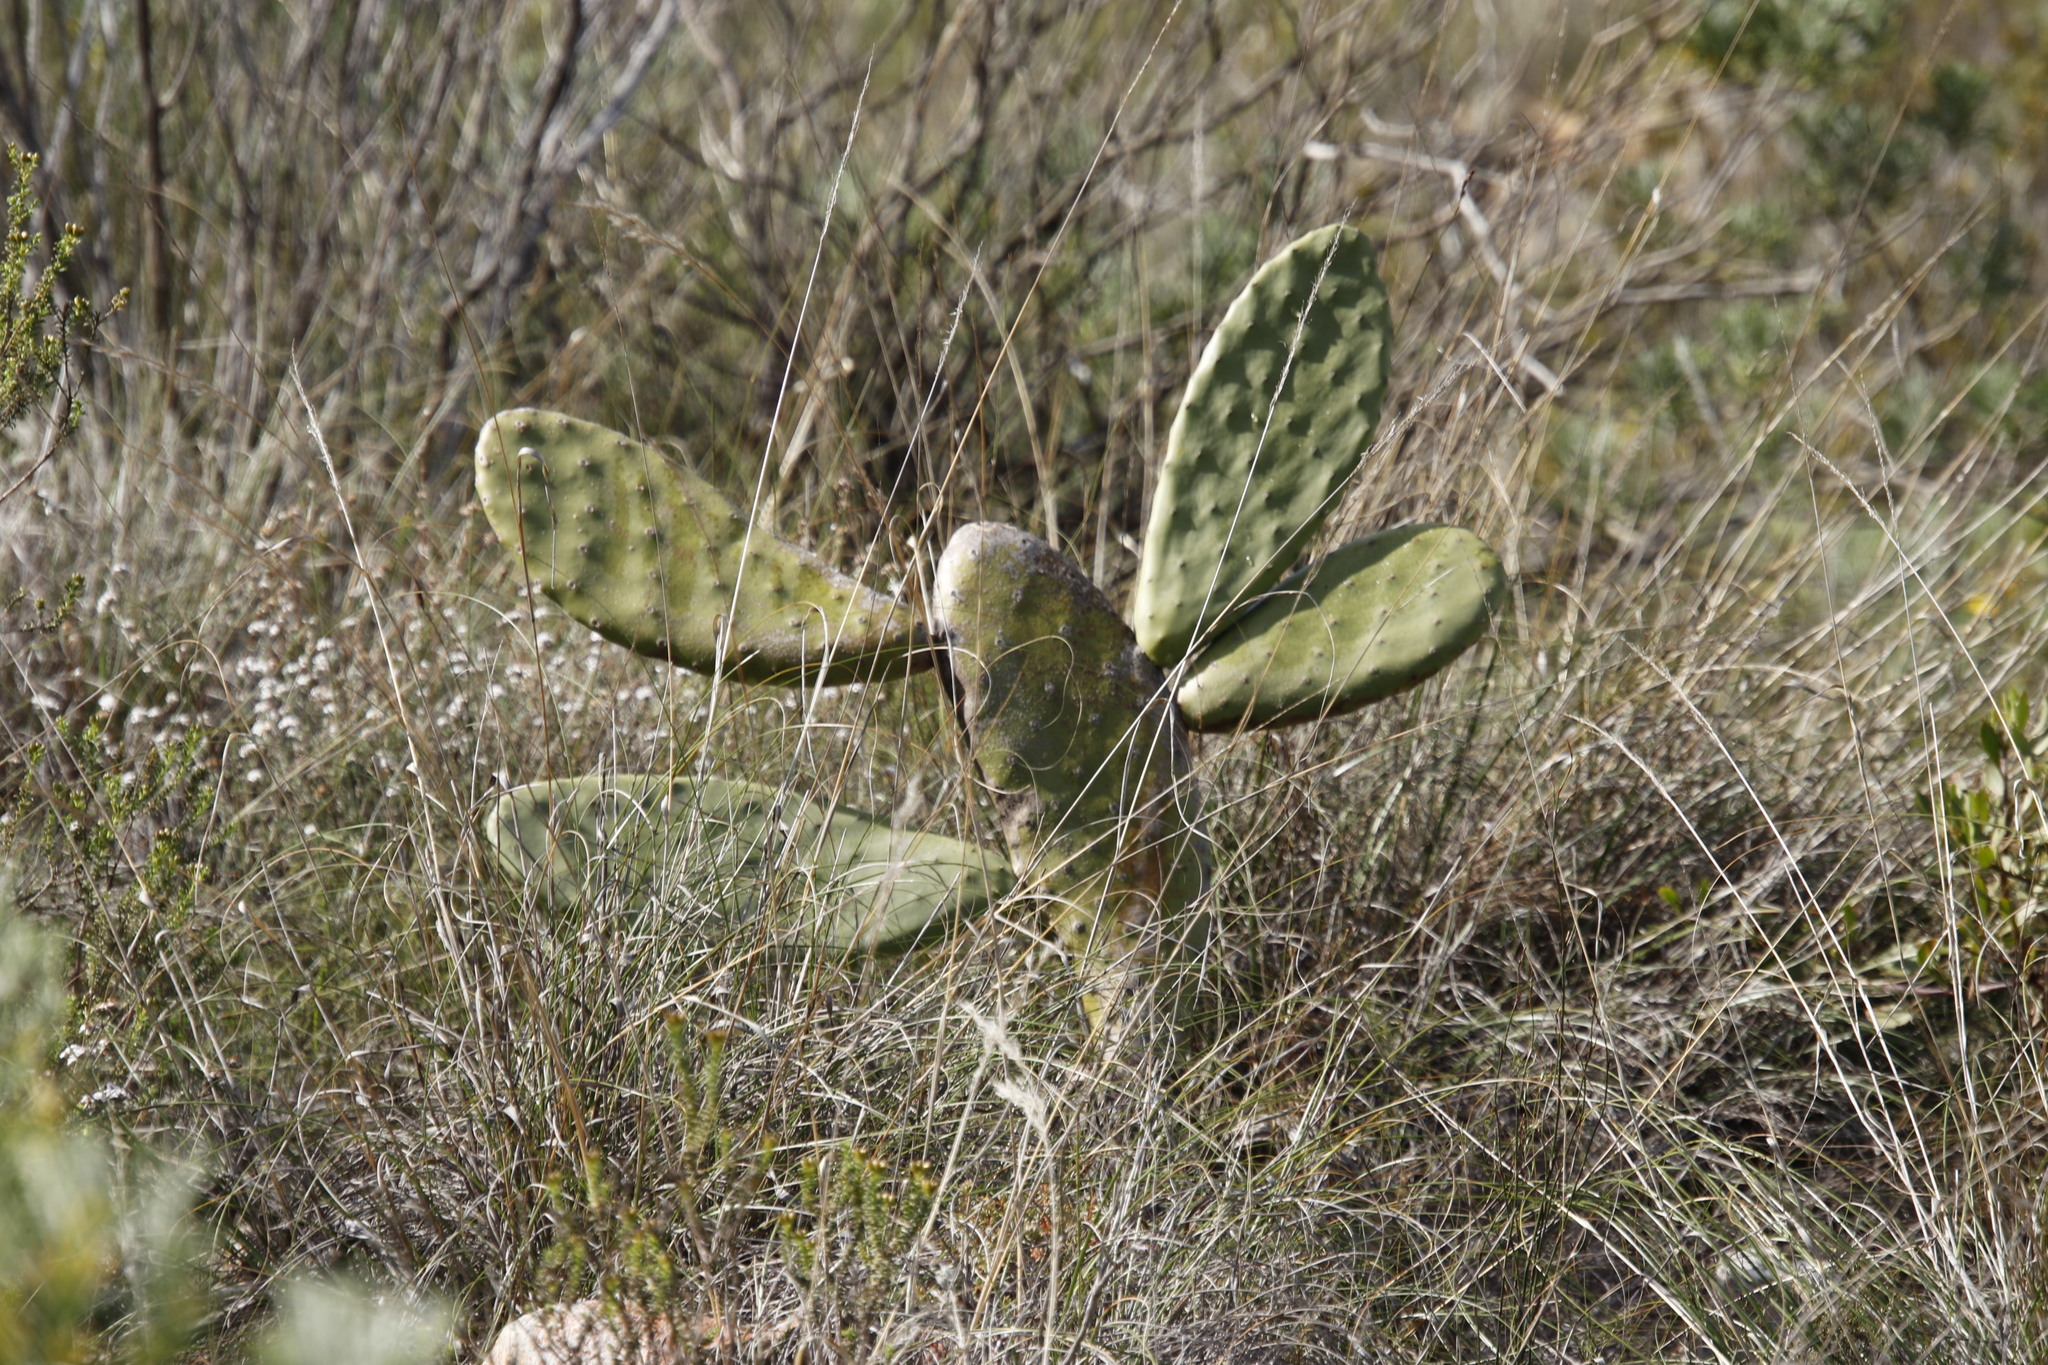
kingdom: Plantae
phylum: Tracheophyta
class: Magnoliopsida
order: Caryophyllales
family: Cactaceae
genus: Opuntia
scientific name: Opuntia ficus-indica
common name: Barbary fig
